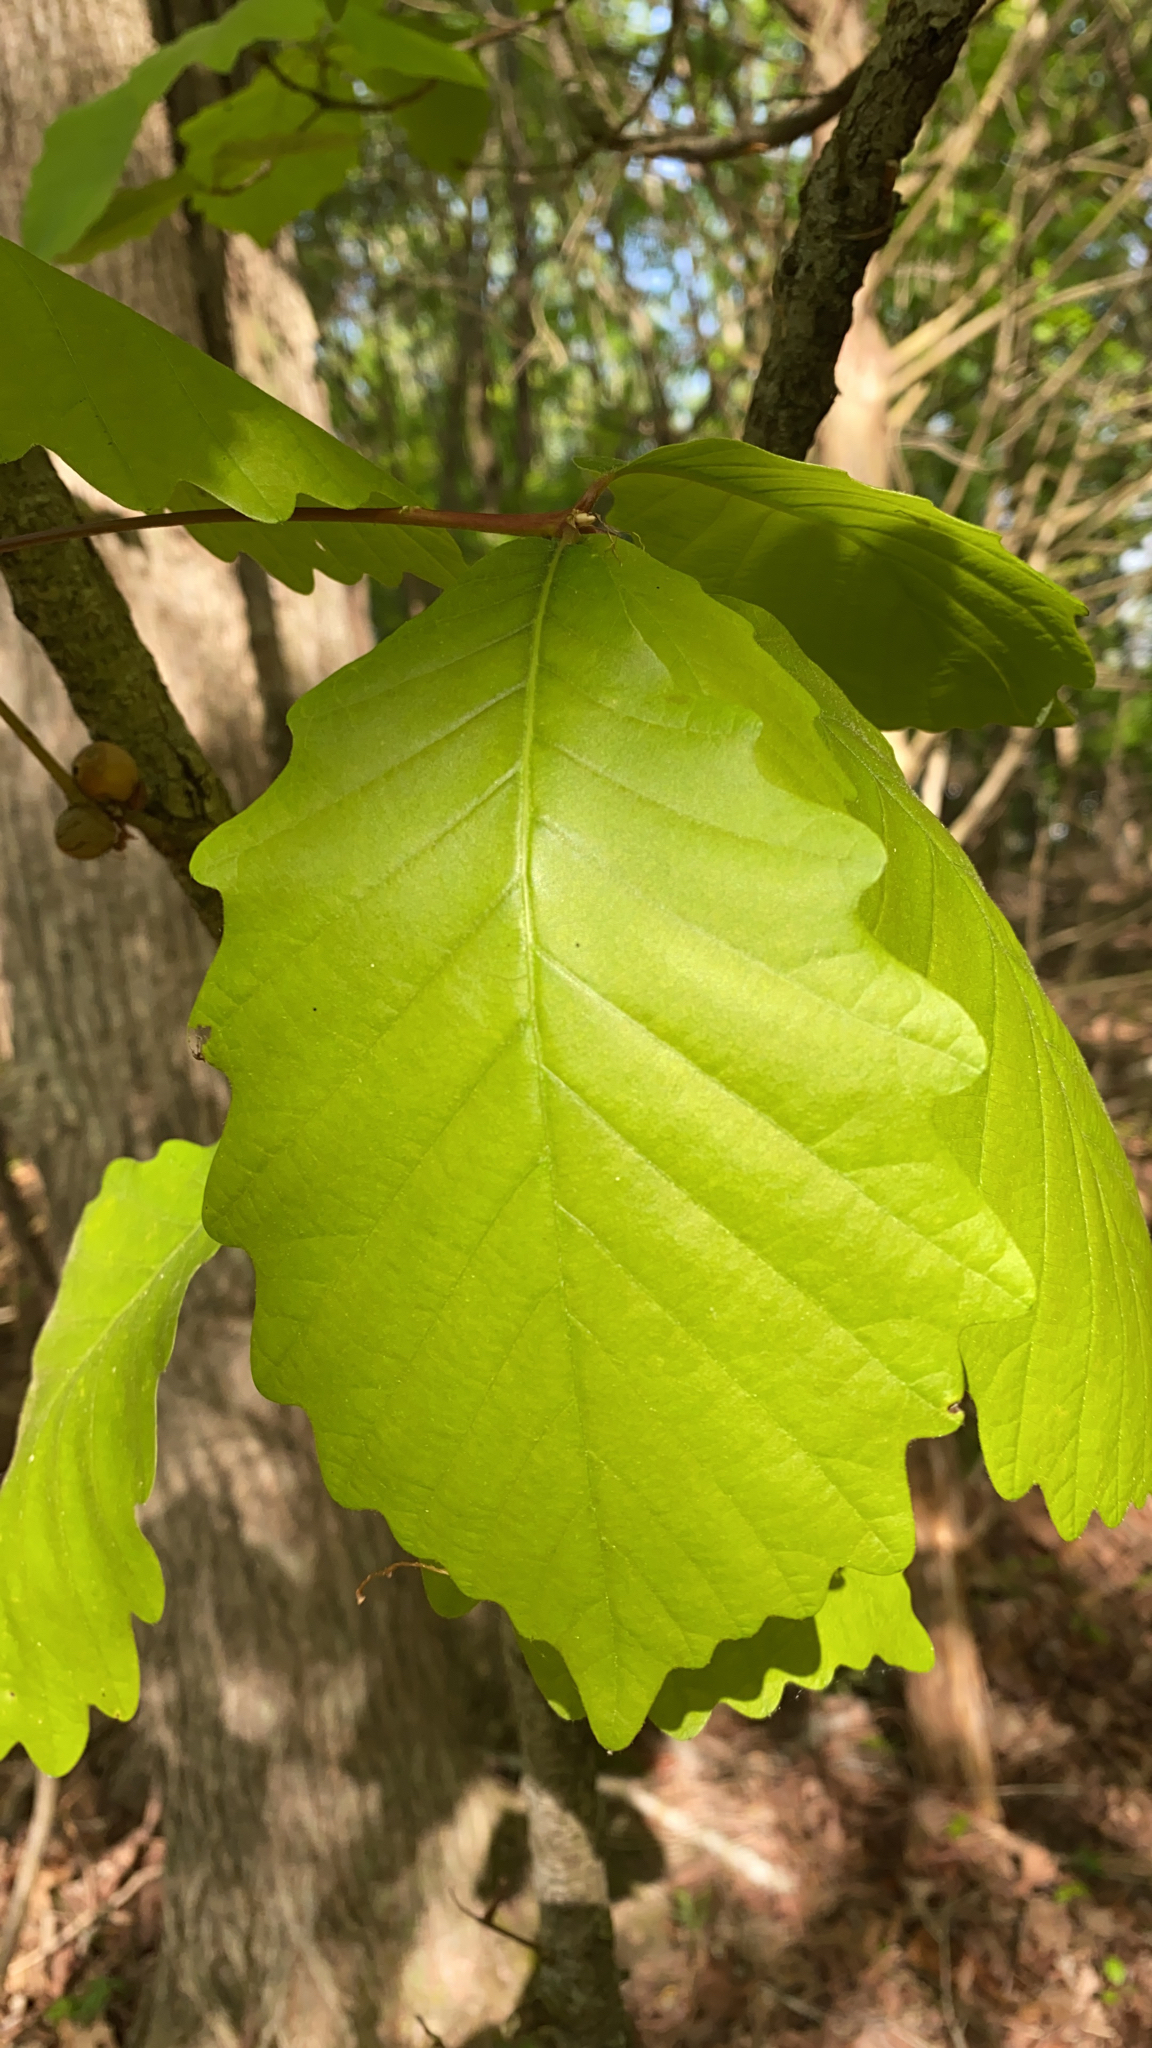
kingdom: Plantae
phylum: Tracheophyta
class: Magnoliopsida
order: Fagales
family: Fagaceae
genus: Quercus
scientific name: Quercus montana
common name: Chestnut oak
